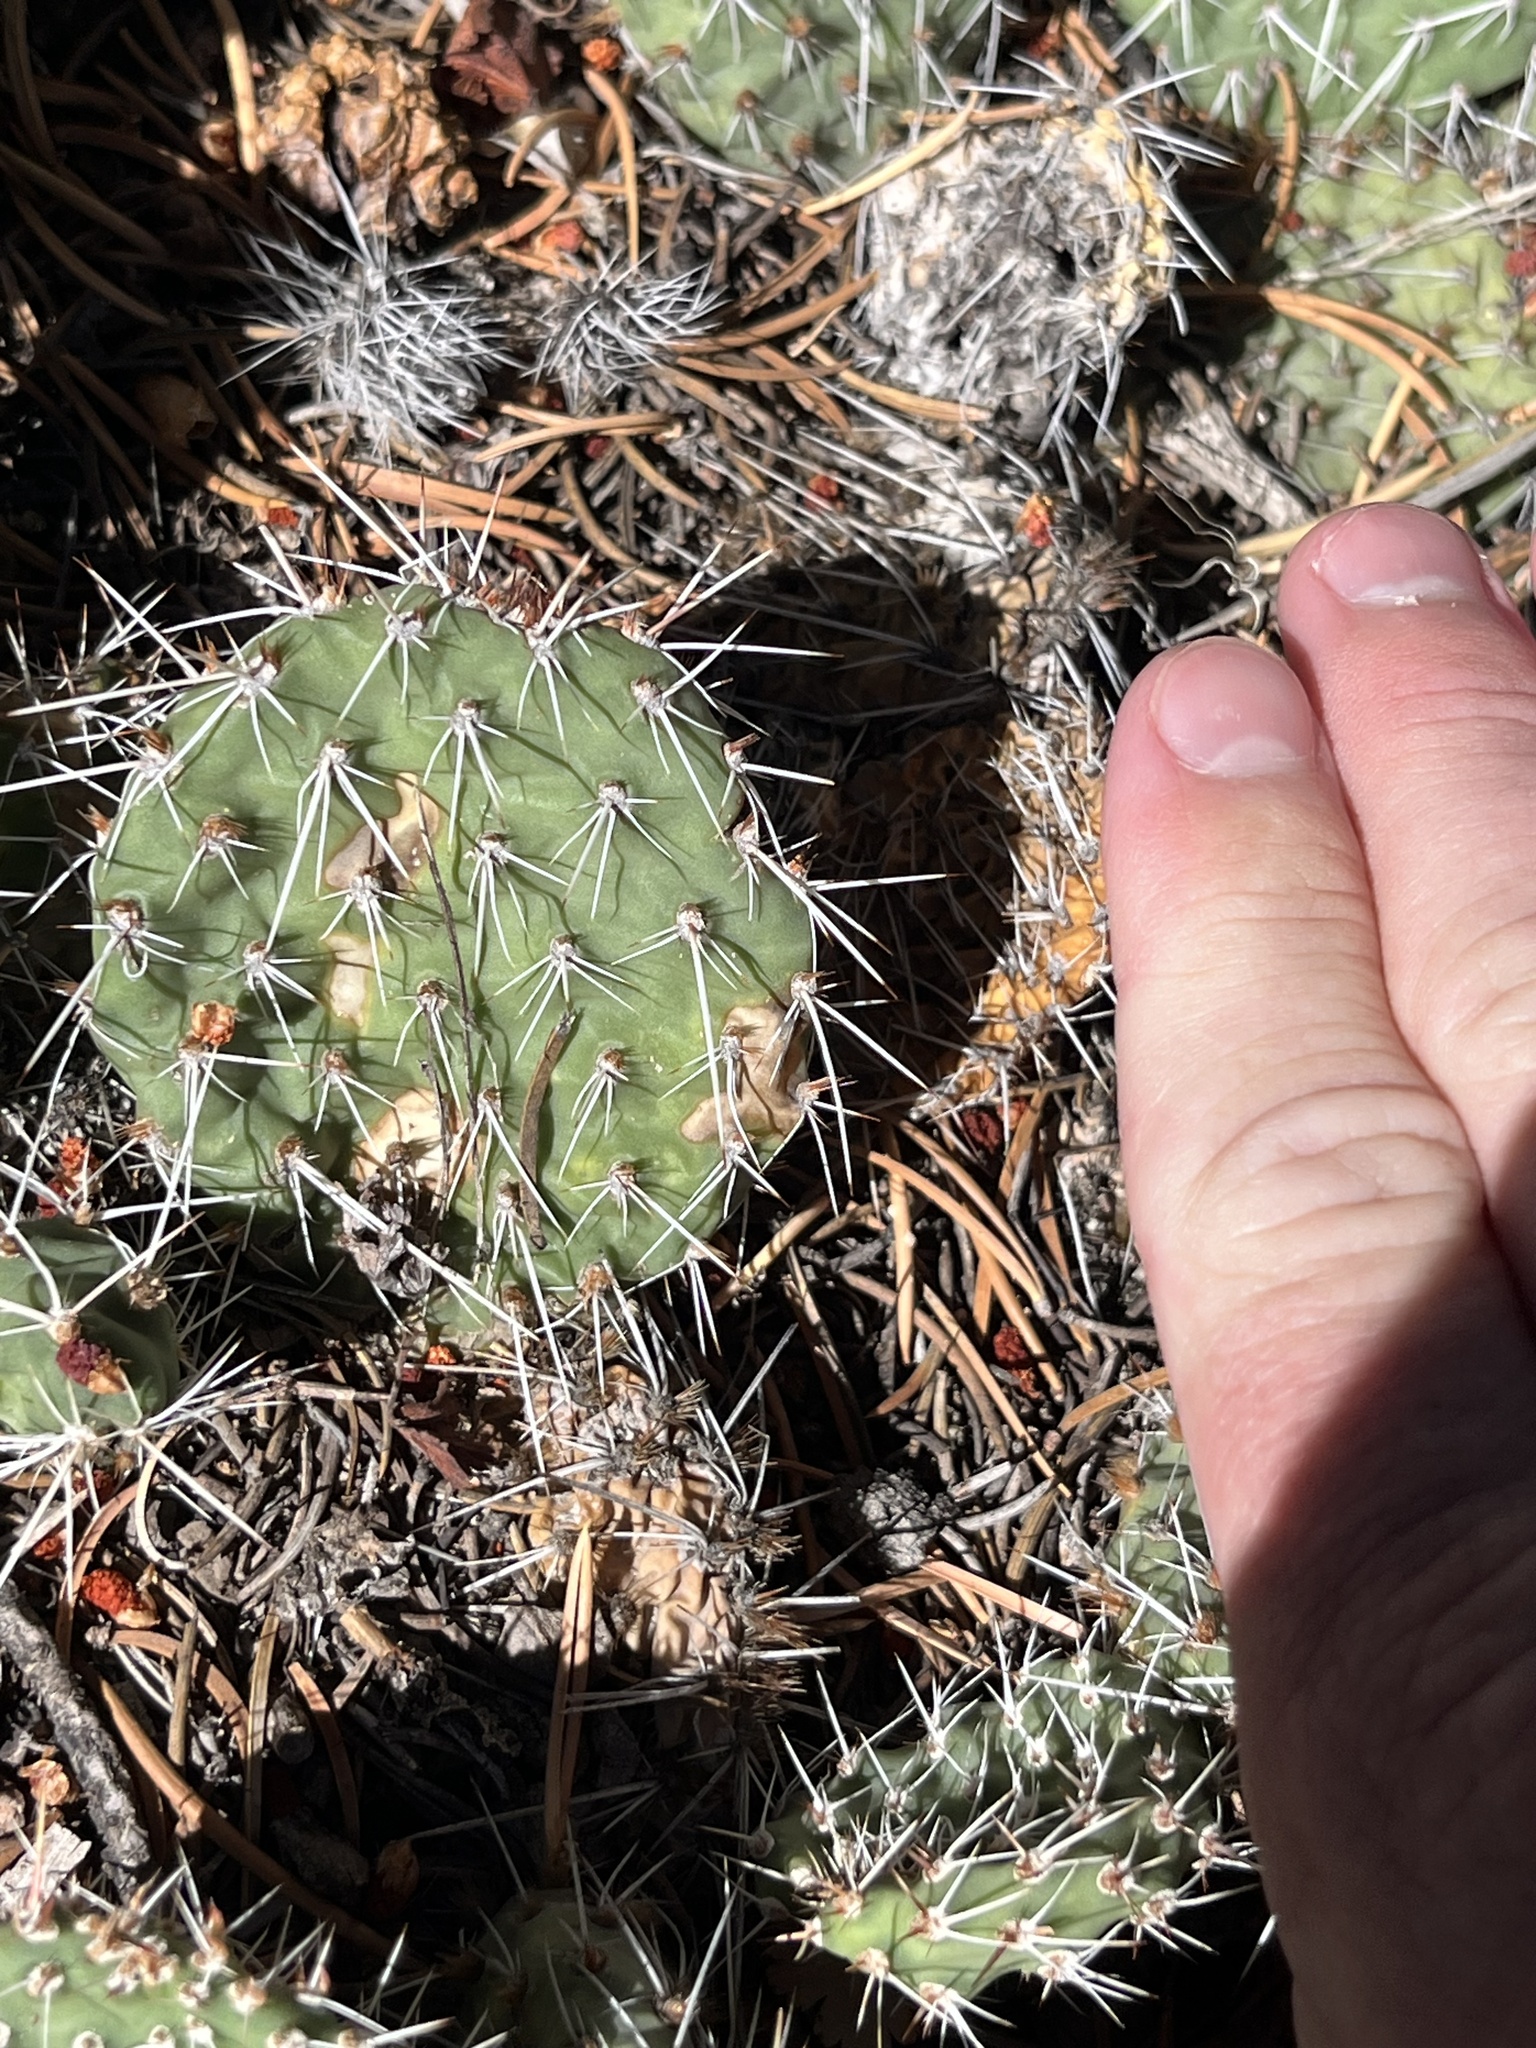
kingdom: Plantae
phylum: Tracheophyta
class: Magnoliopsida
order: Caryophyllales
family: Cactaceae
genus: Opuntia
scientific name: Opuntia polyacantha
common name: Plains prickly-pear
